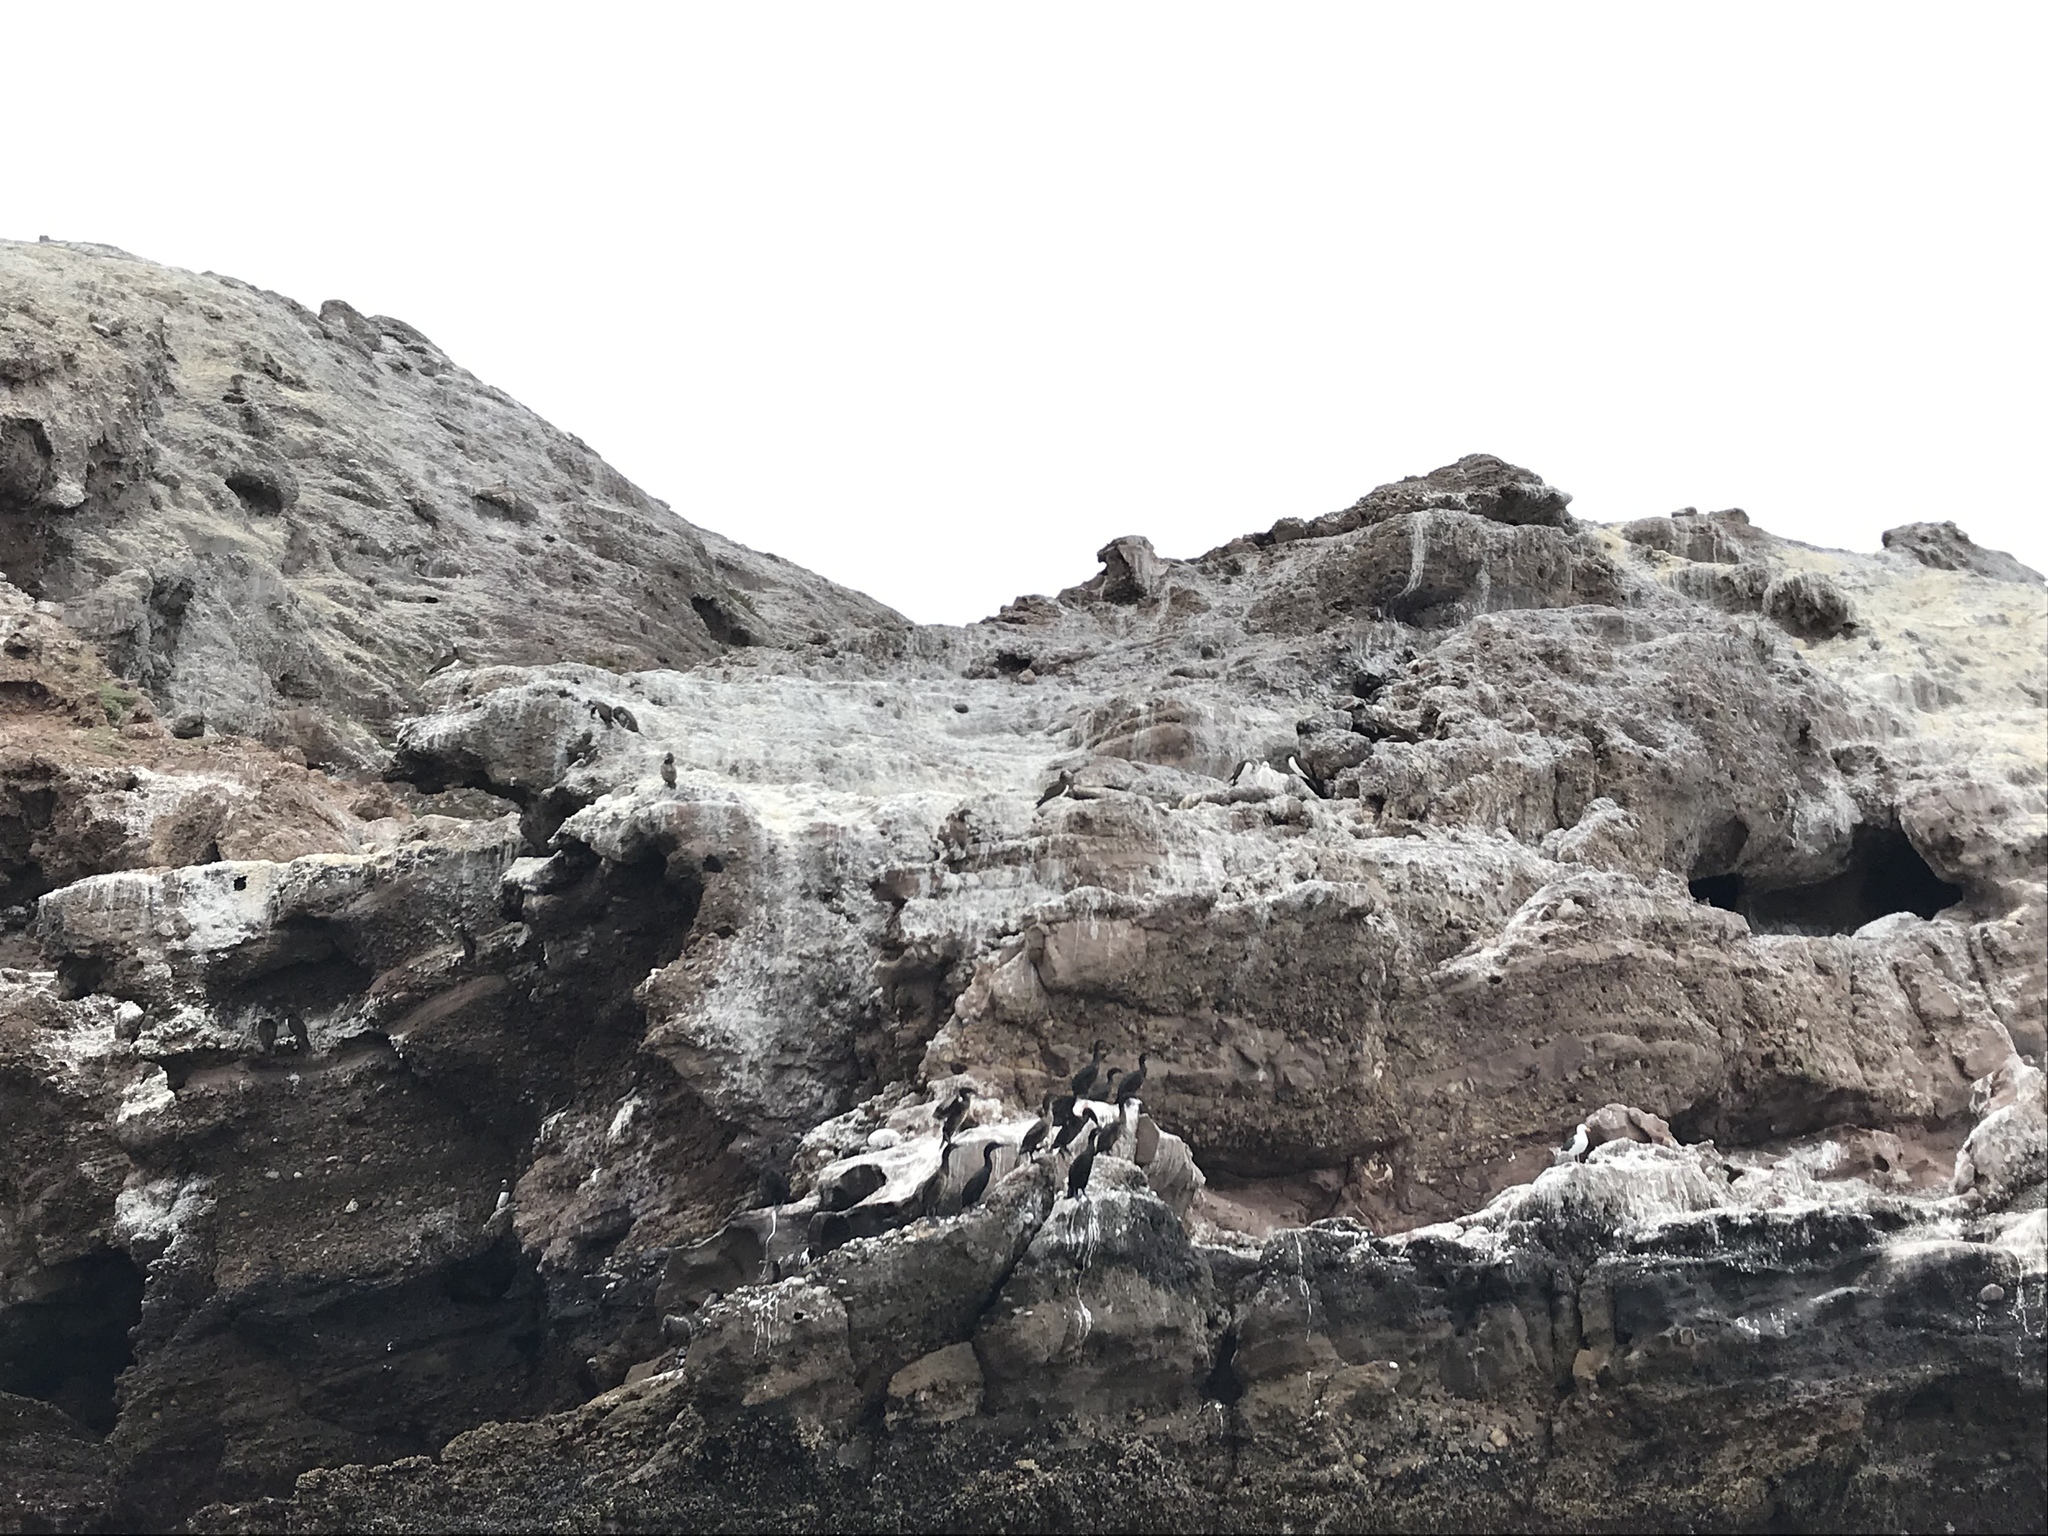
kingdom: Animalia
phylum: Chordata
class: Aves
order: Suliformes
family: Sulidae
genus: Sula
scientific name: Sula leucogaster
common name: Brown booby
